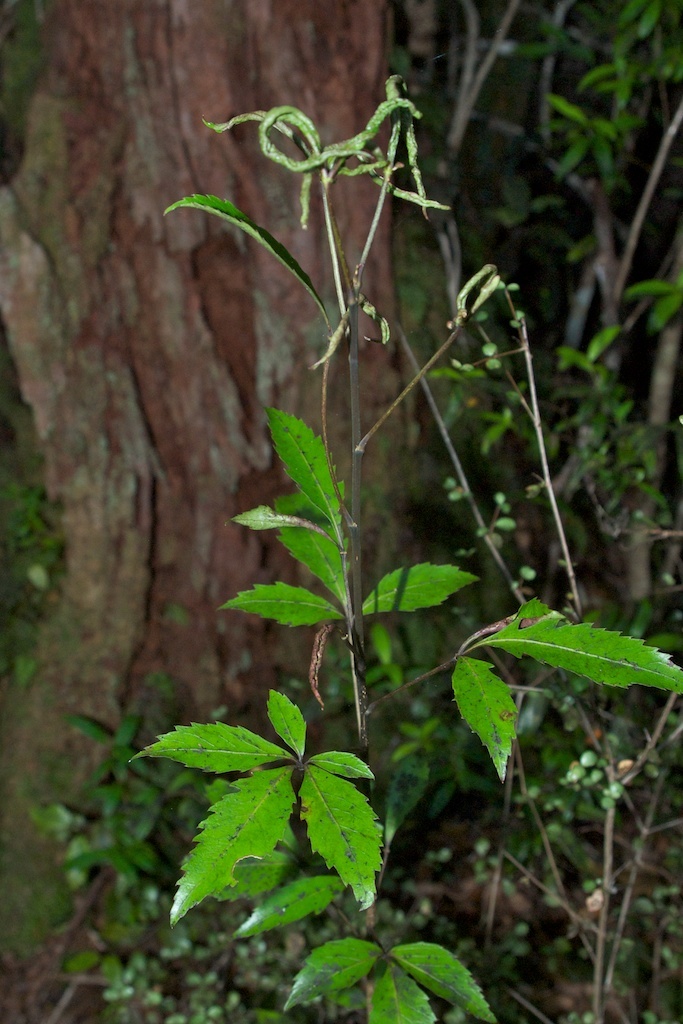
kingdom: Plantae
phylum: Tracheophyta
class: Magnoliopsida
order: Apiales
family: Araliaceae
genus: Raukaua
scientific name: Raukaua simplex
